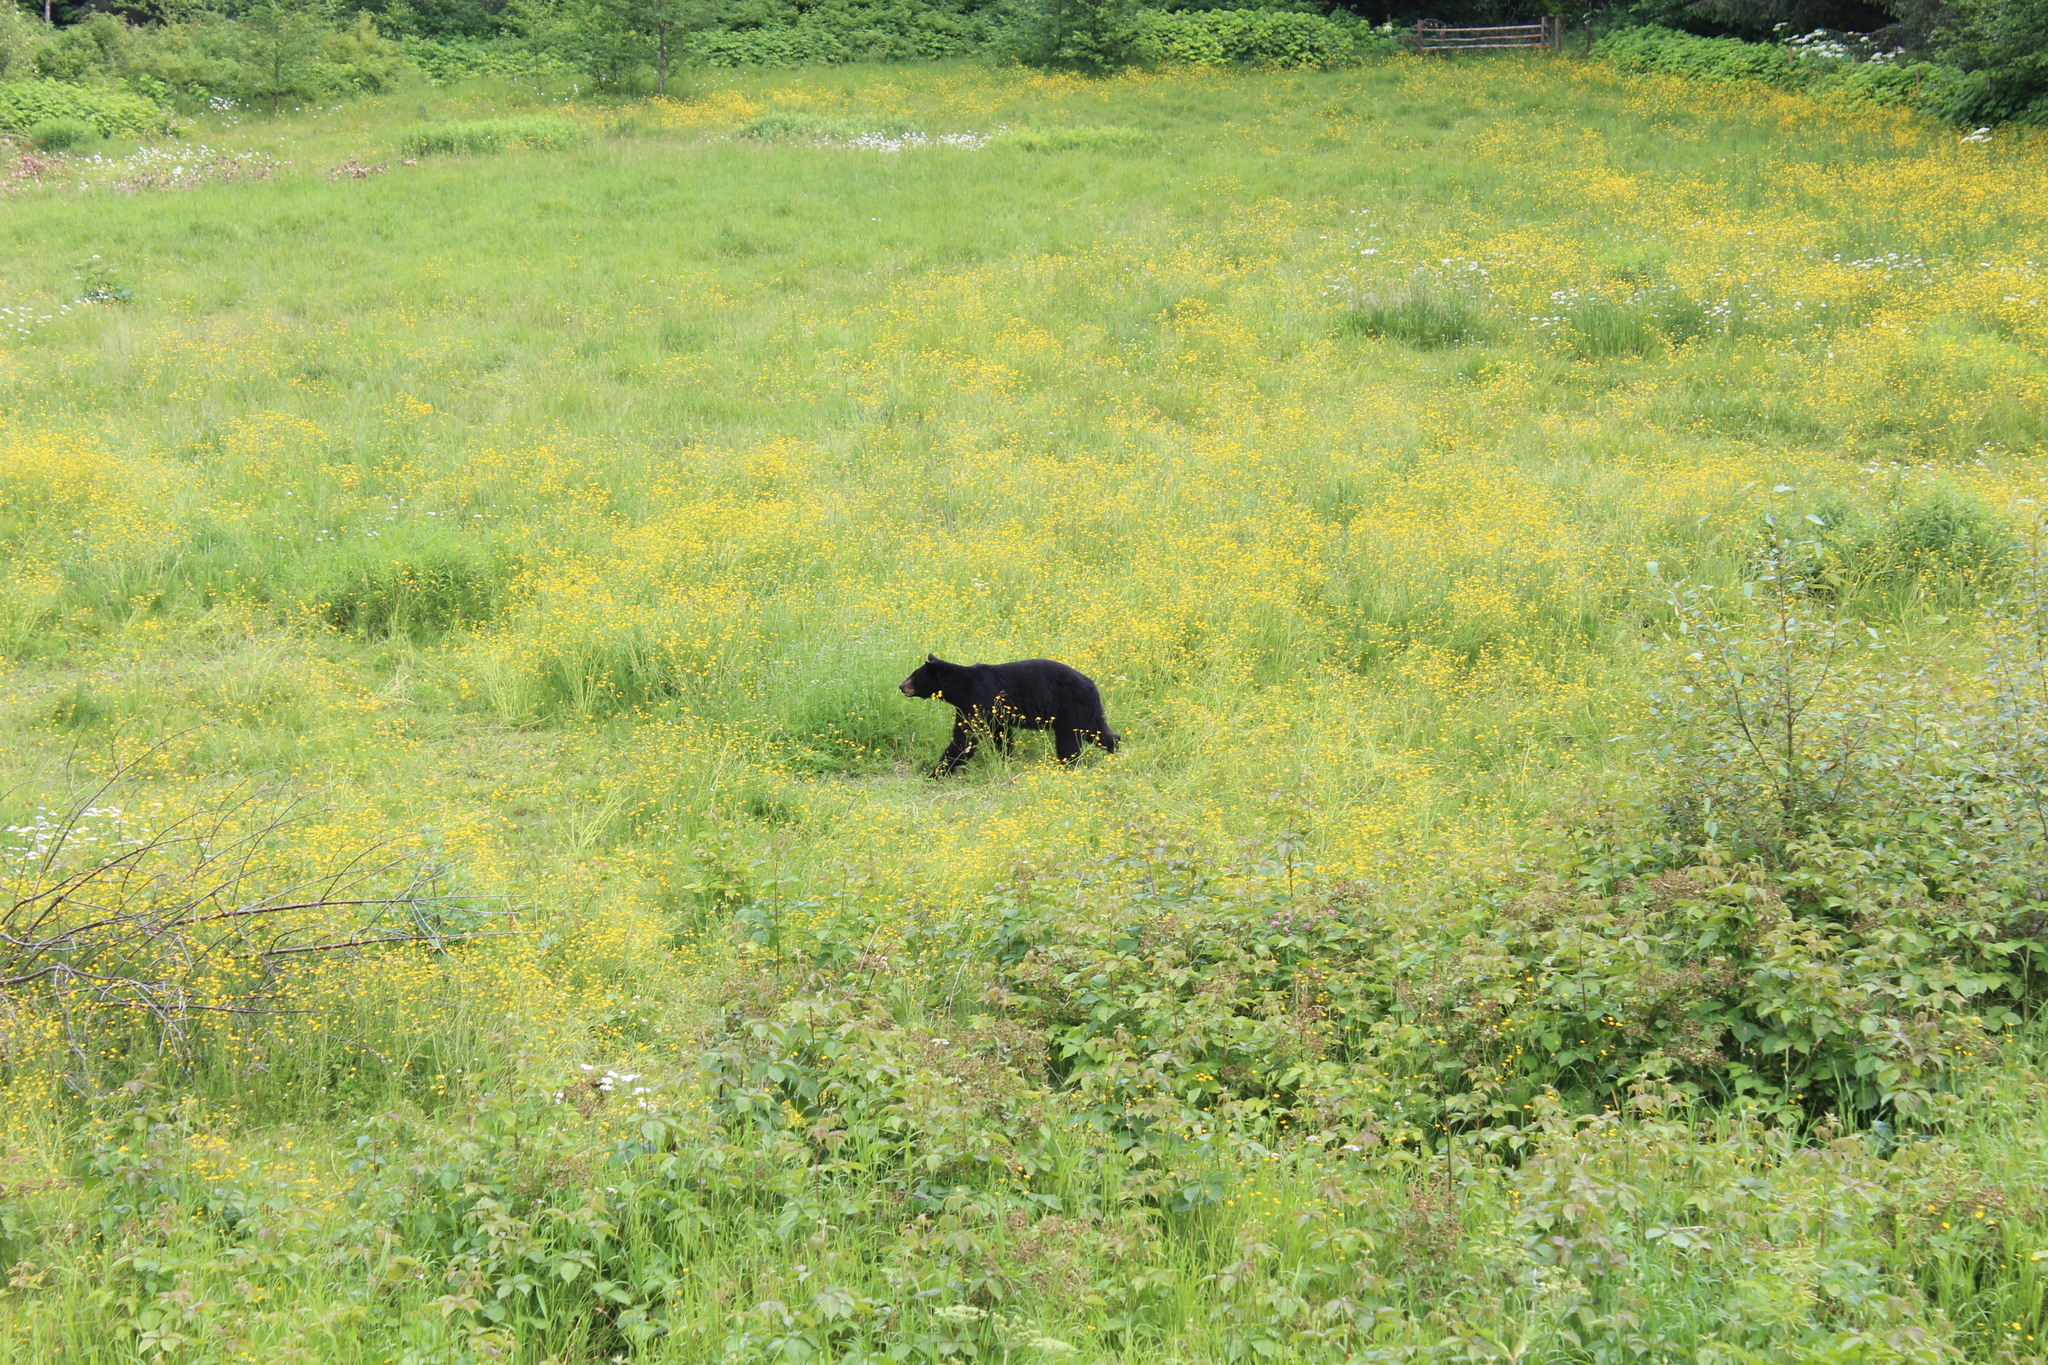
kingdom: Animalia
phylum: Chordata
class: Mammalia
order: Carnivora
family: Ursidae
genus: Ursus
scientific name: Ursus americanus
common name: American black bear
